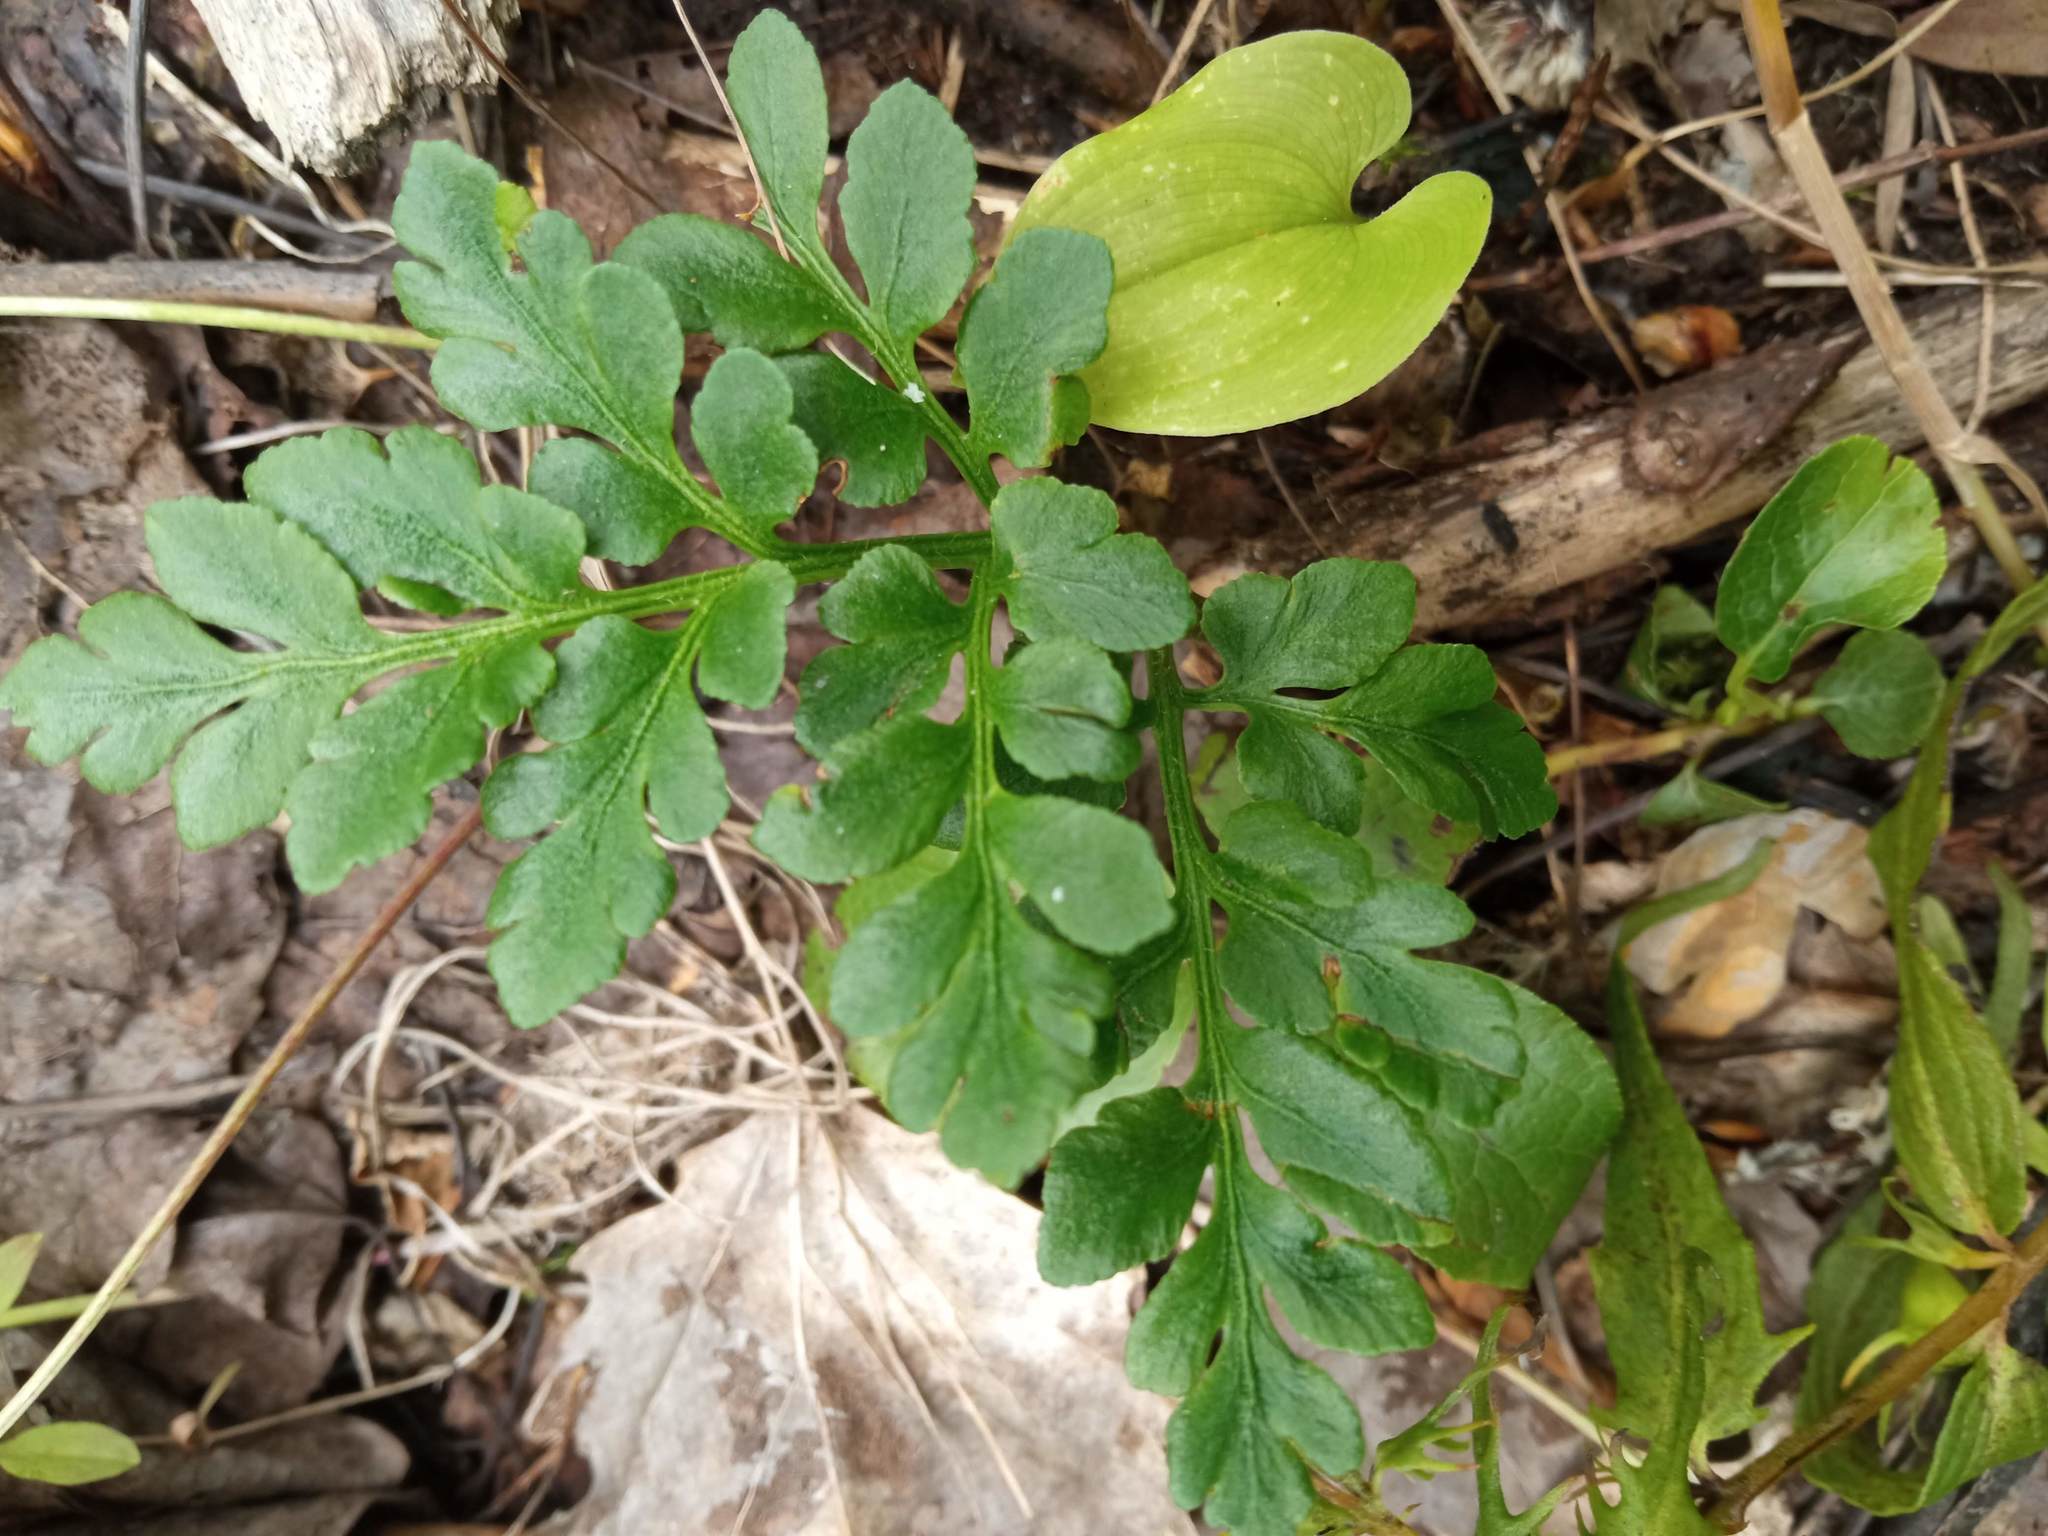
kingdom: Plantae
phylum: Tracheophyta
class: Polypodiopsida
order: Ophioglossales
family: Ophioglossaceae
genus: Sceptridium
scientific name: Sceptridium multifidum
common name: Leathery grape fern
